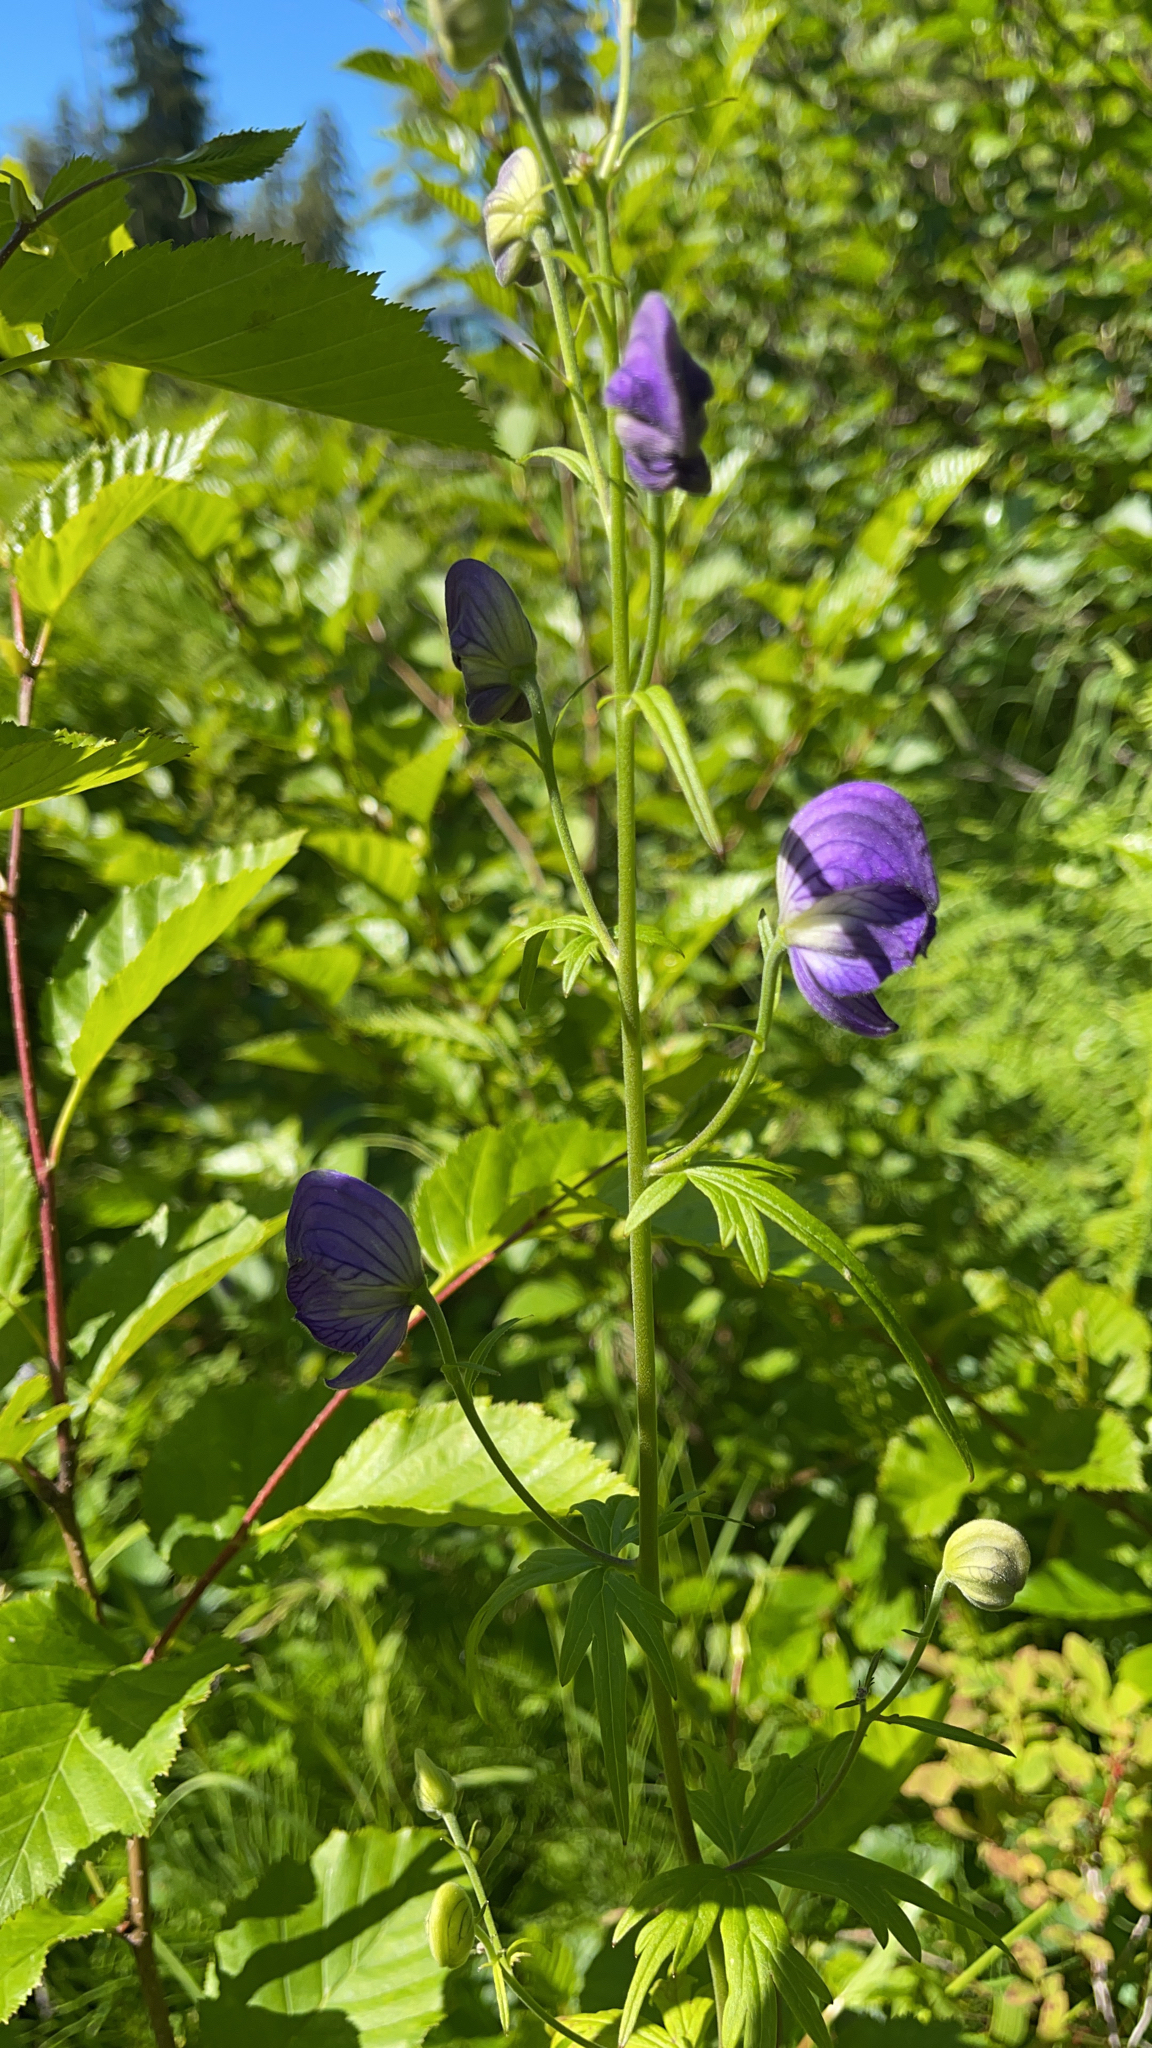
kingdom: Plantae
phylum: Tracheophyta
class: Magnoliopsida
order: Ranunculales
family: Ranunculaceae
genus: Aconitum
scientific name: Aconitum delphiniifolium
